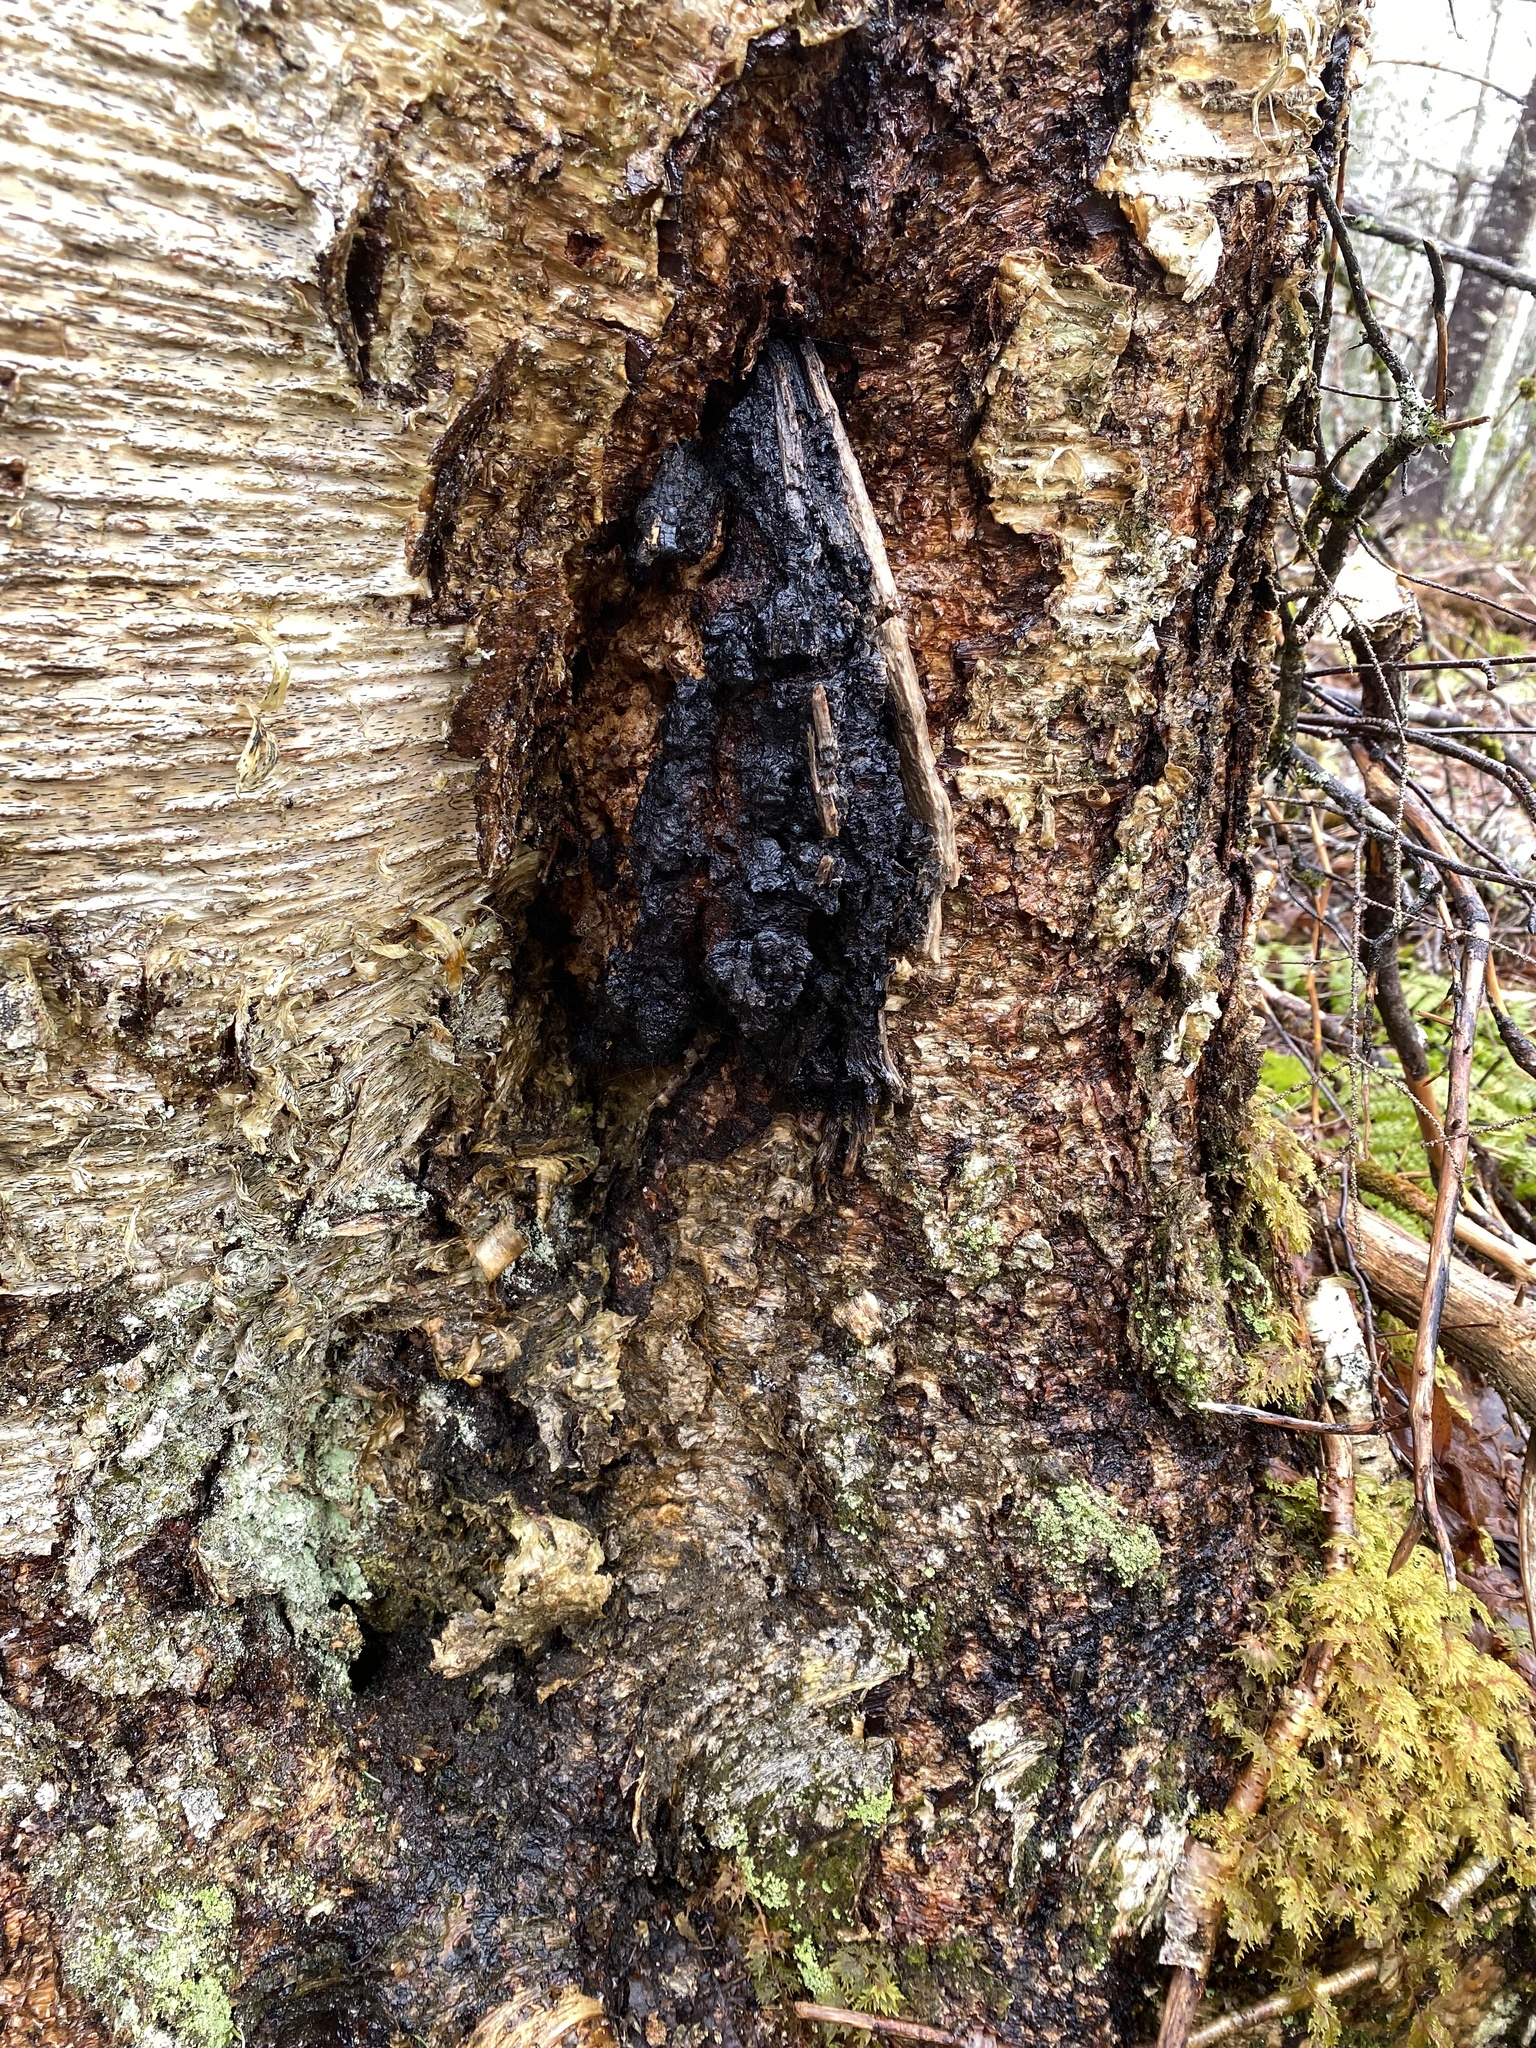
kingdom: Fungi
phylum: Basidiomycota
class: Agaricomycetes
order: Hymenochaetales
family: Hymenochaetaceae
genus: Inonotus
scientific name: Inonotus obliquus
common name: Chaga
